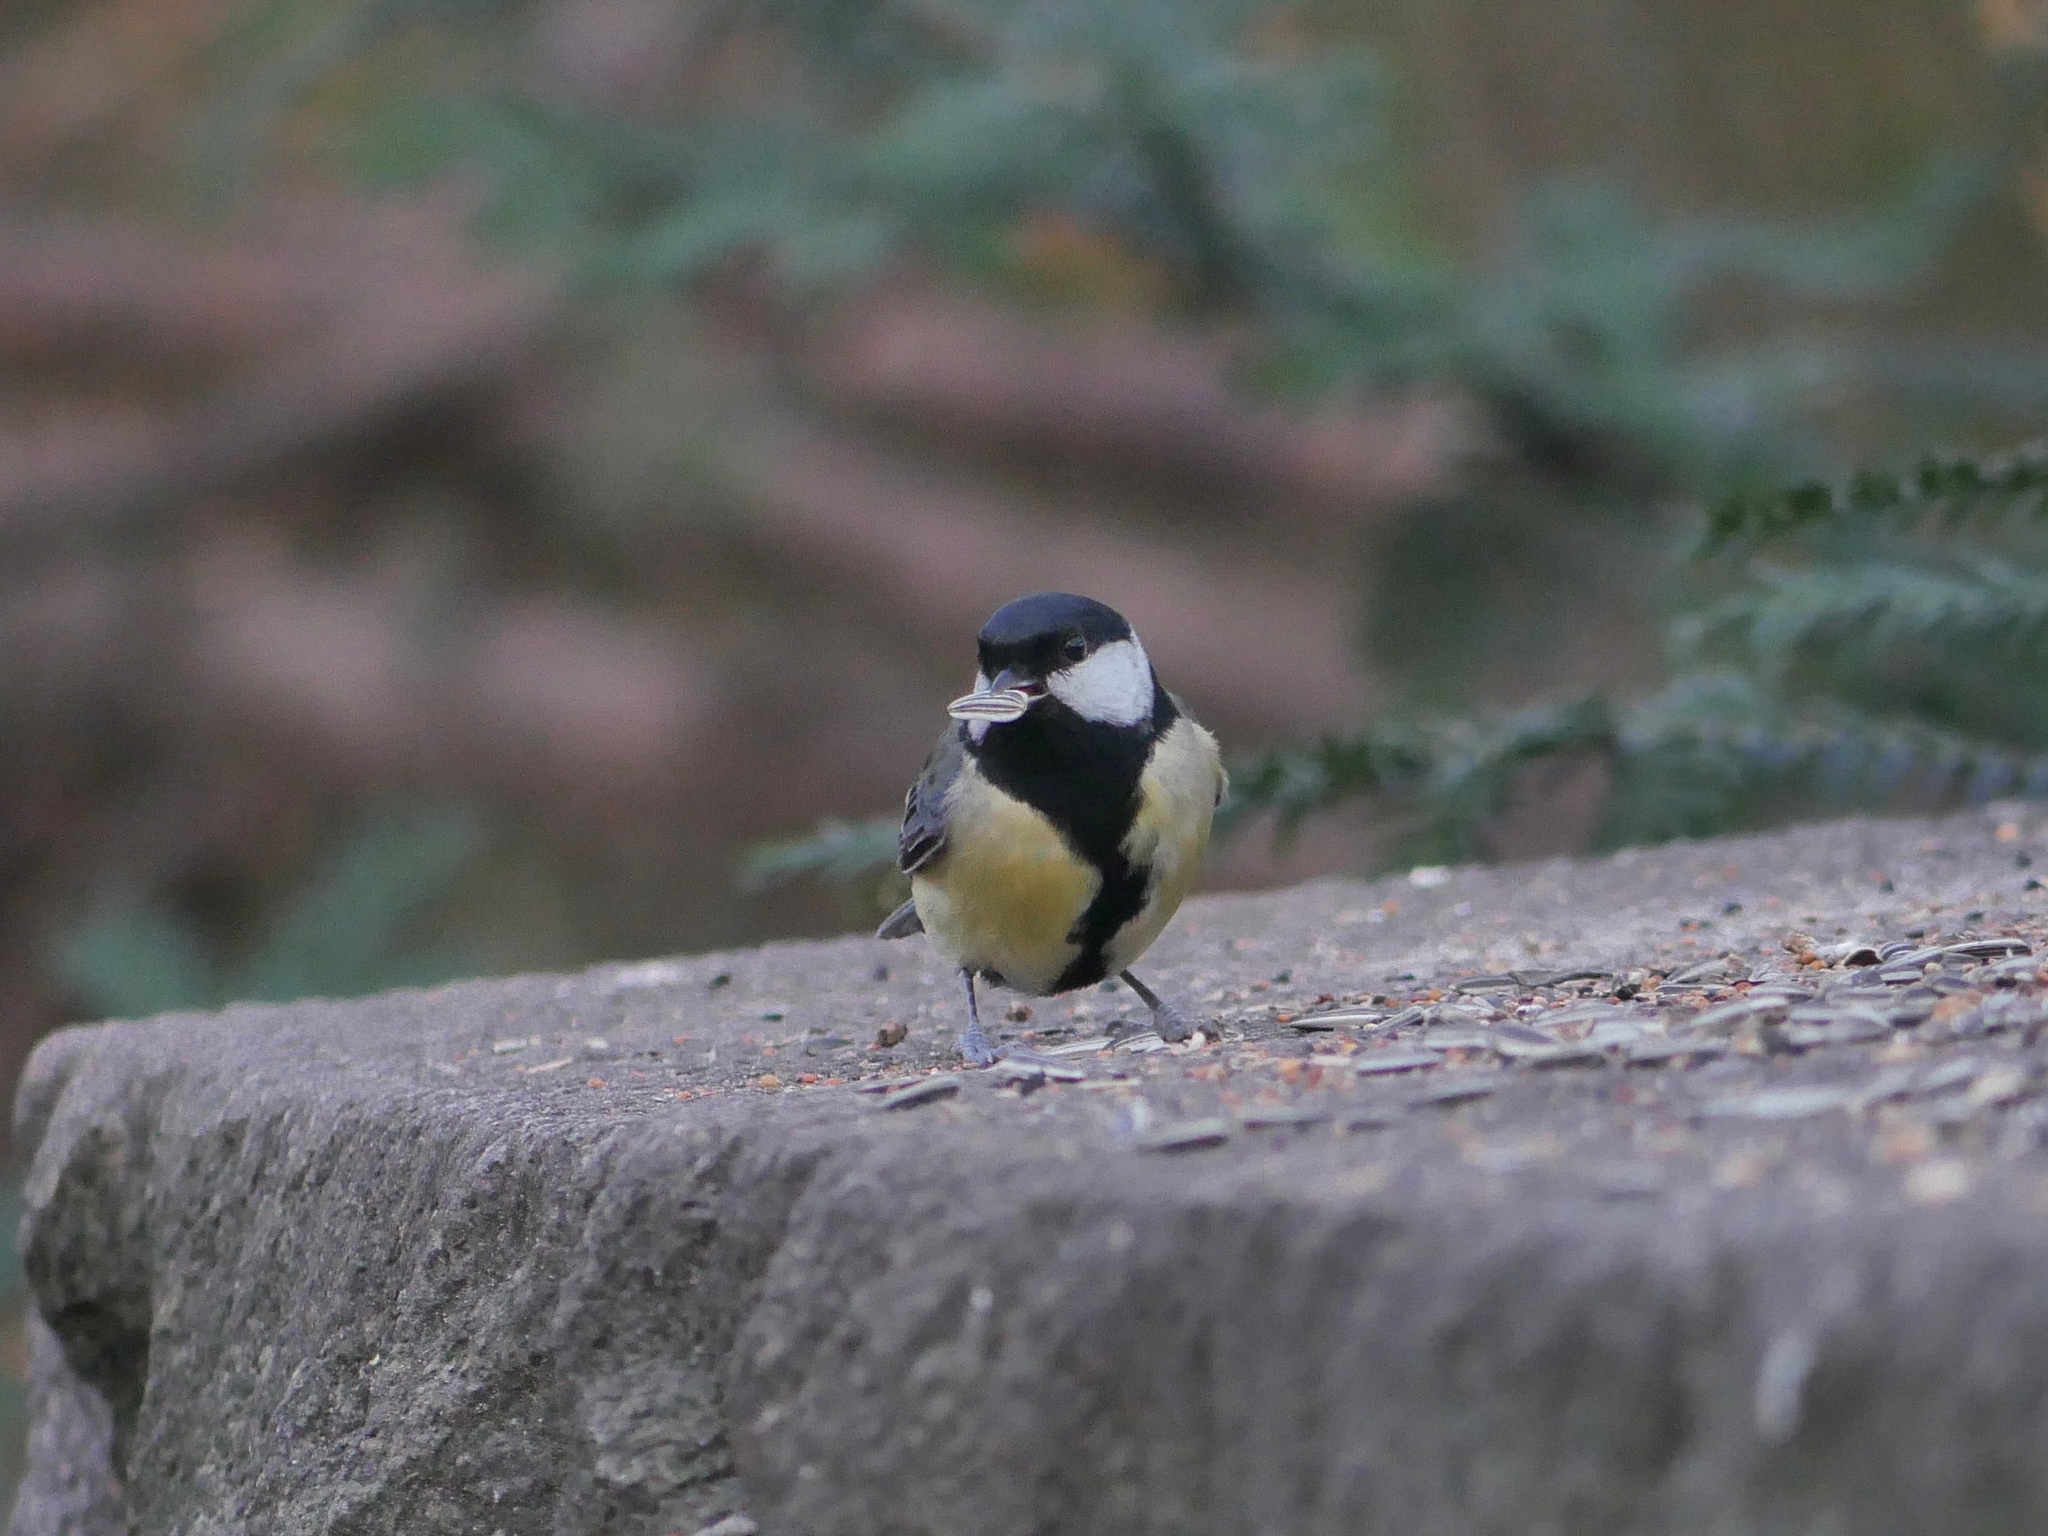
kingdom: Animalia
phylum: Chordata
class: Aves
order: Passeriformes
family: Paridae
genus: Parus
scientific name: Parus major
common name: Great tit
